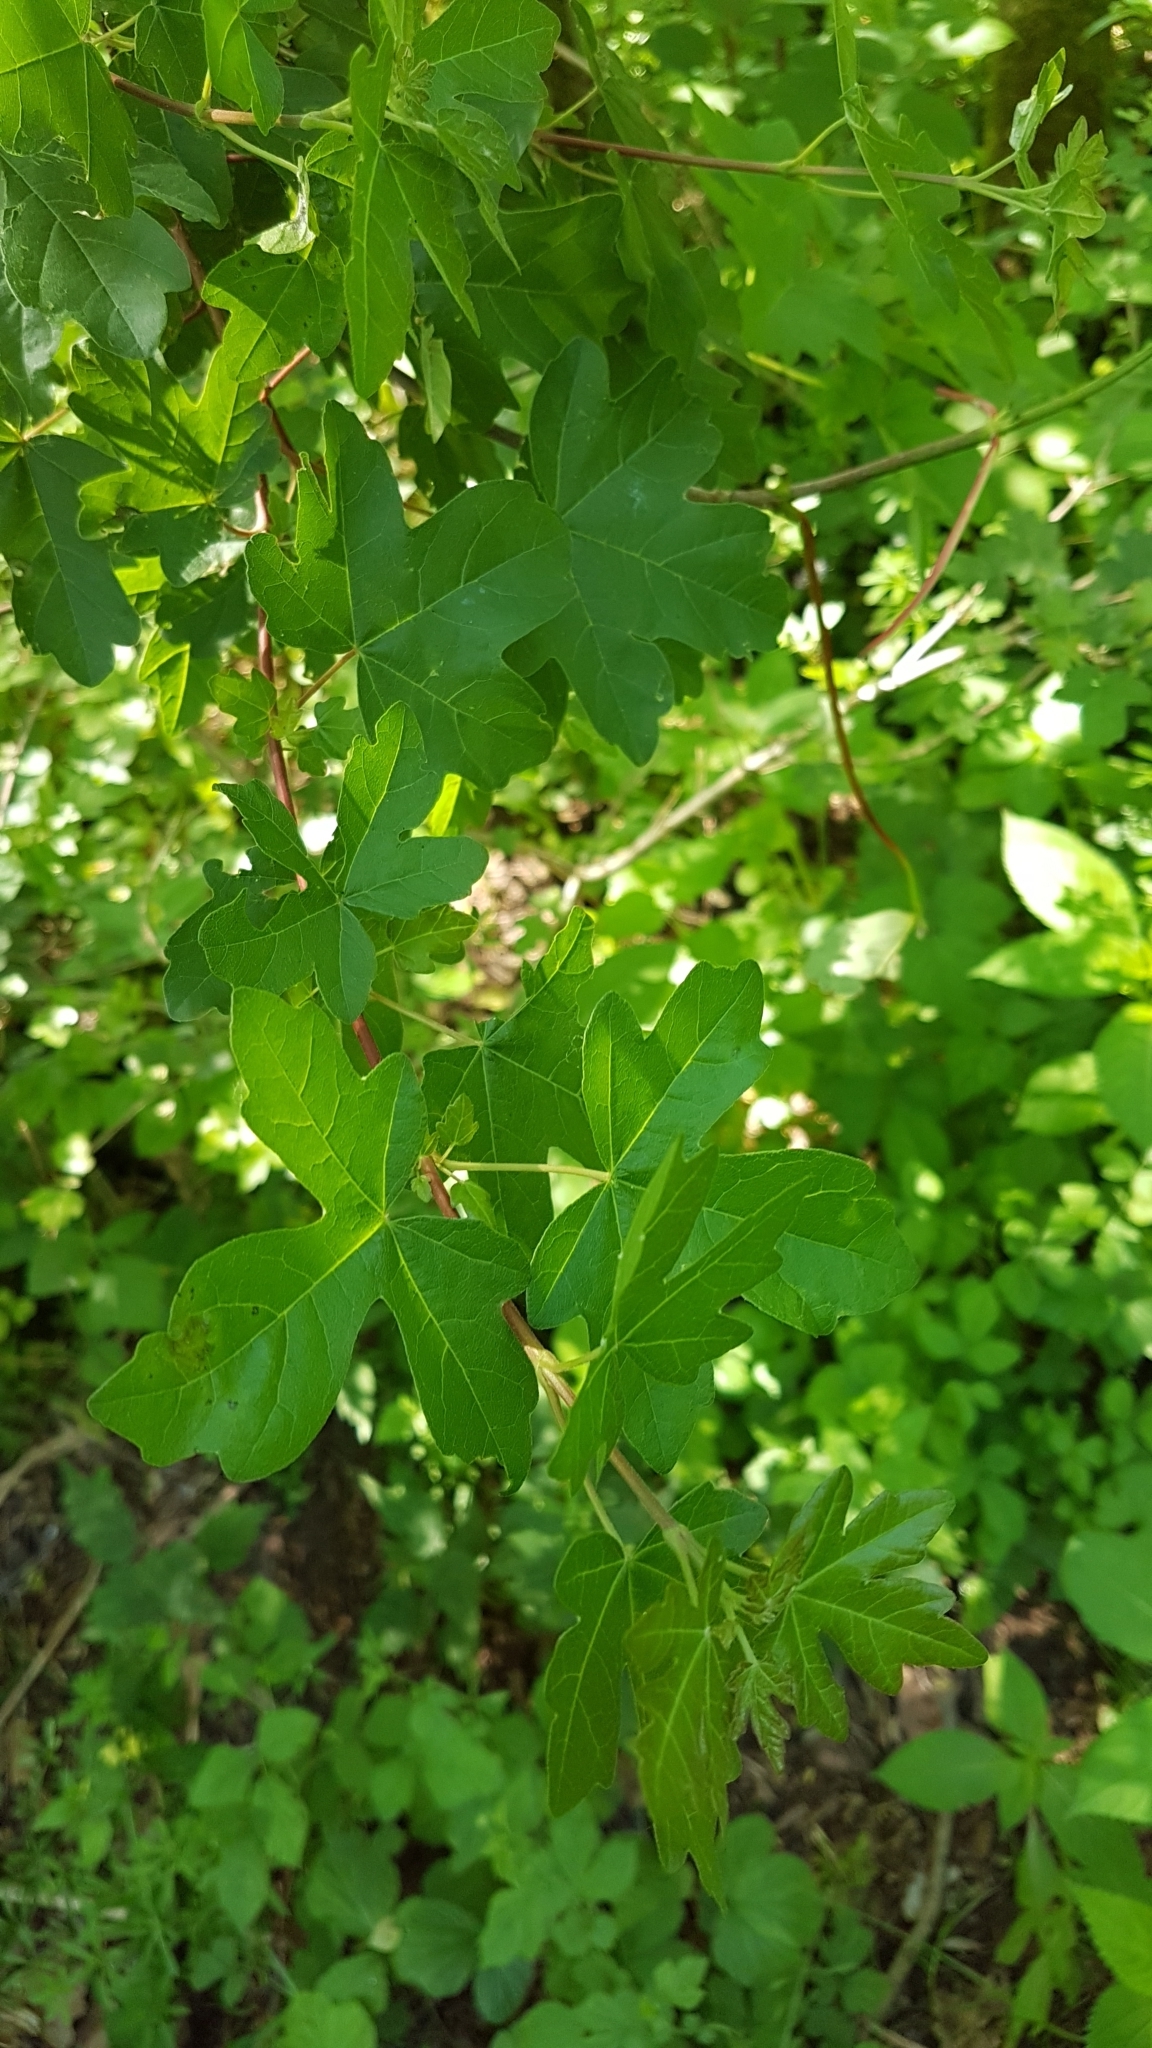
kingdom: Plantae
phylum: Tracheophyta
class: Magnoliopsida
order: Sapindales
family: Sapindaceae
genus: Acer
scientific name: Acer campestre
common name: Field maple
